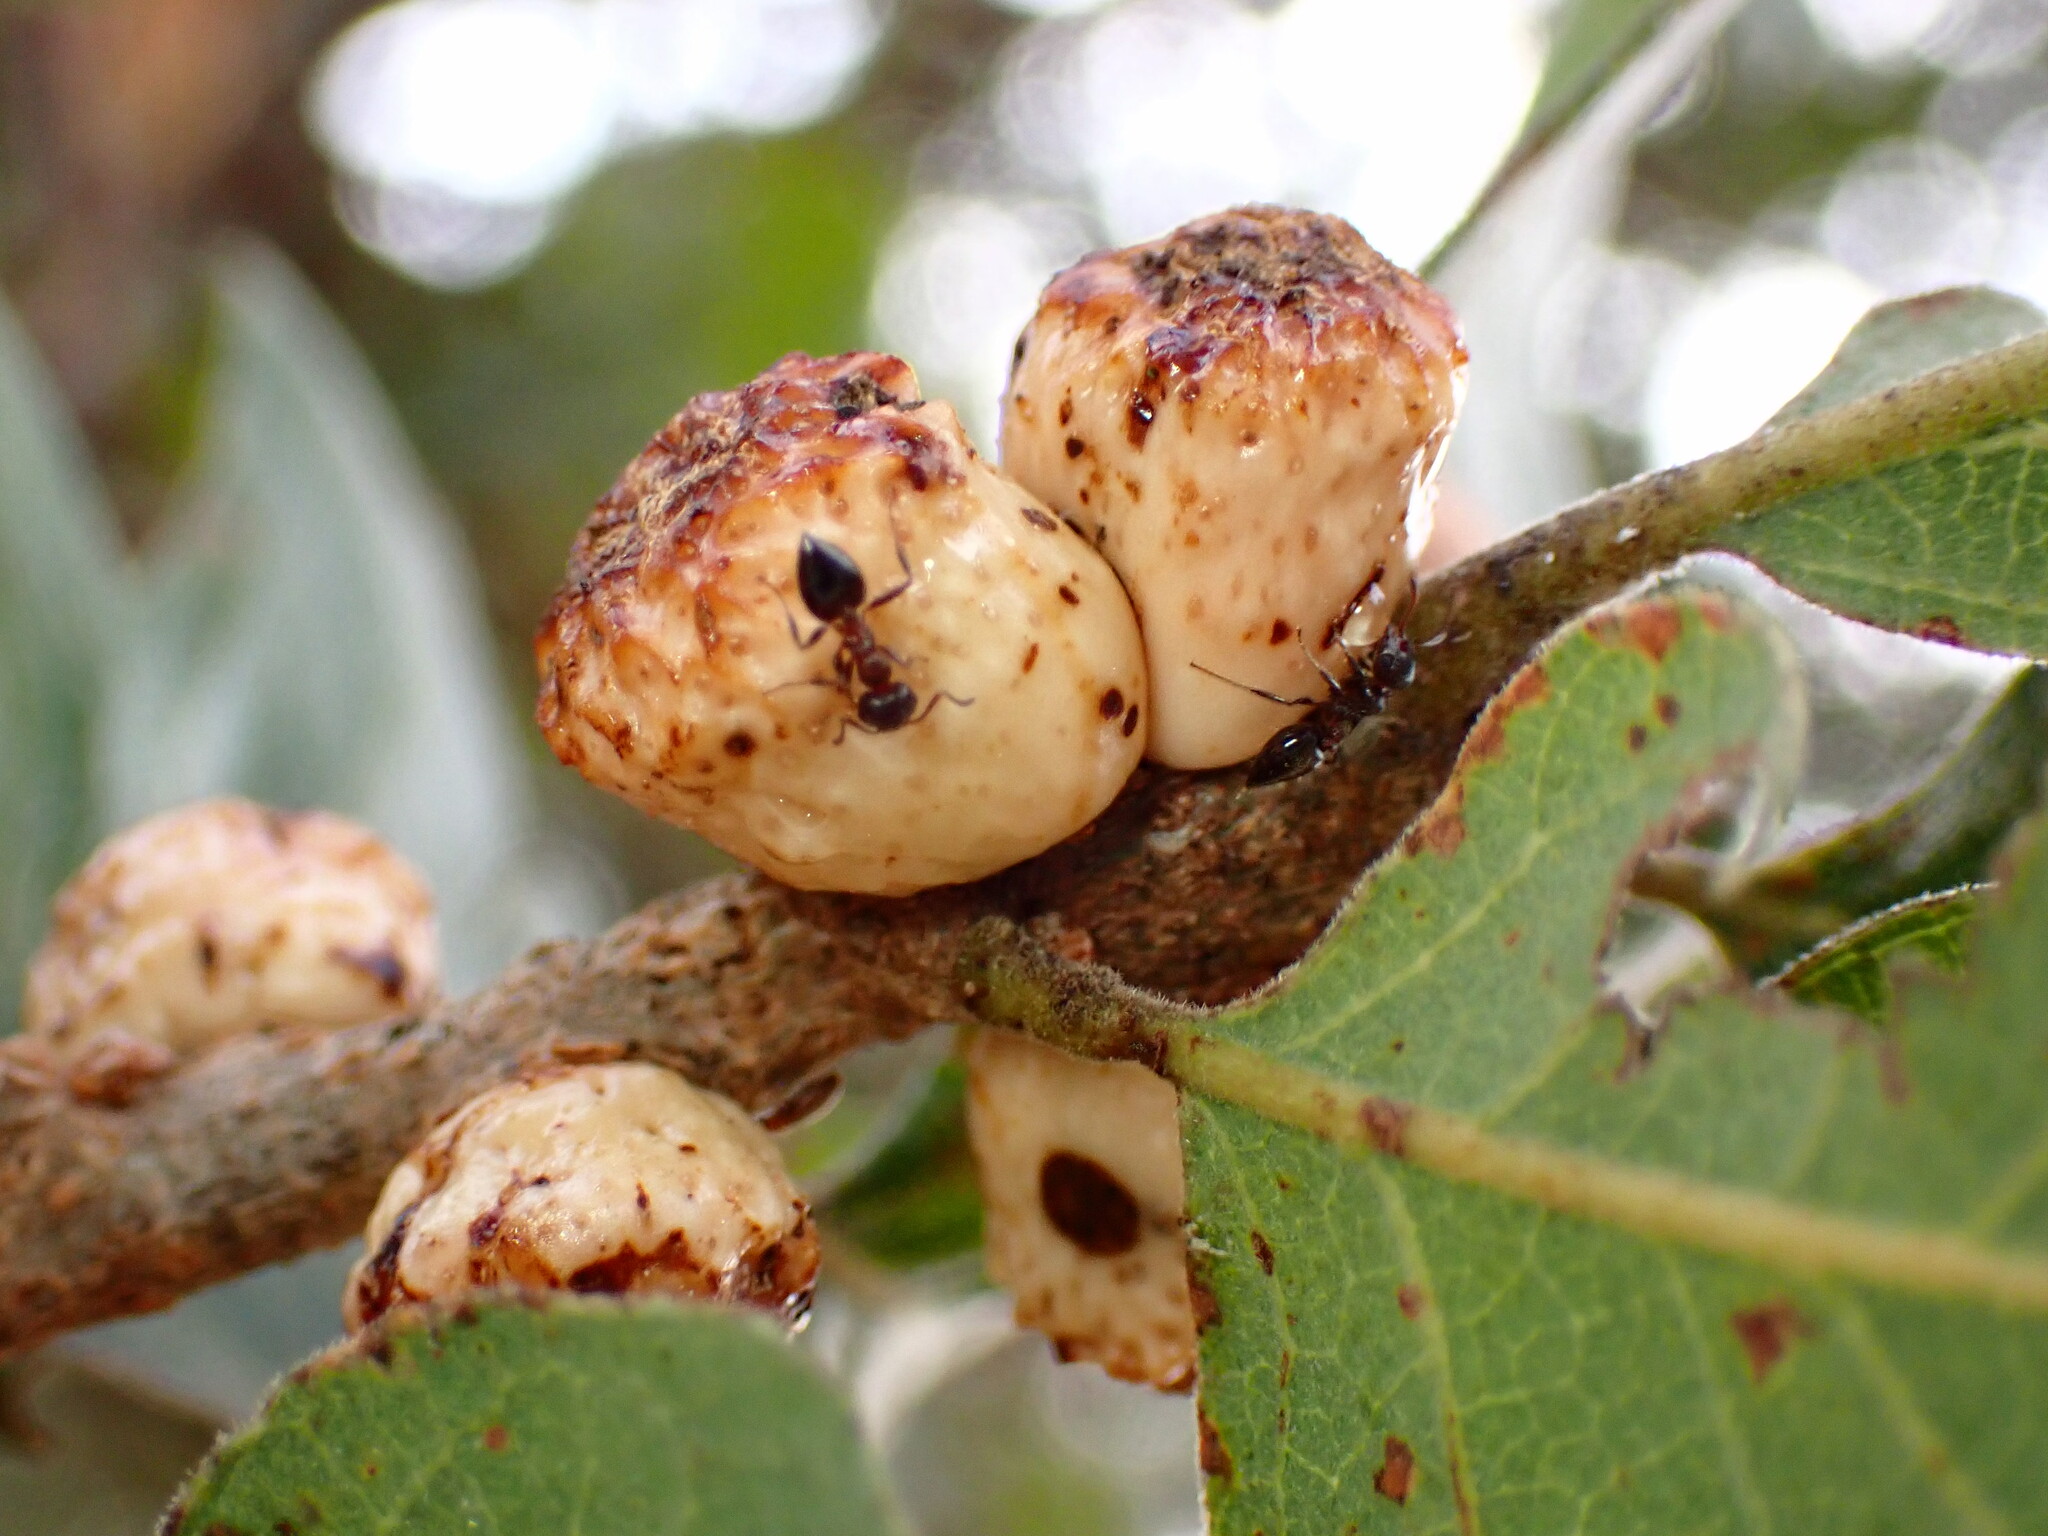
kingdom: Animalia
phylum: Arthropoda
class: Insecta
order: Hymenoptera
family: Cynipidae
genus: Disholcaspis
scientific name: Disholcaspis
